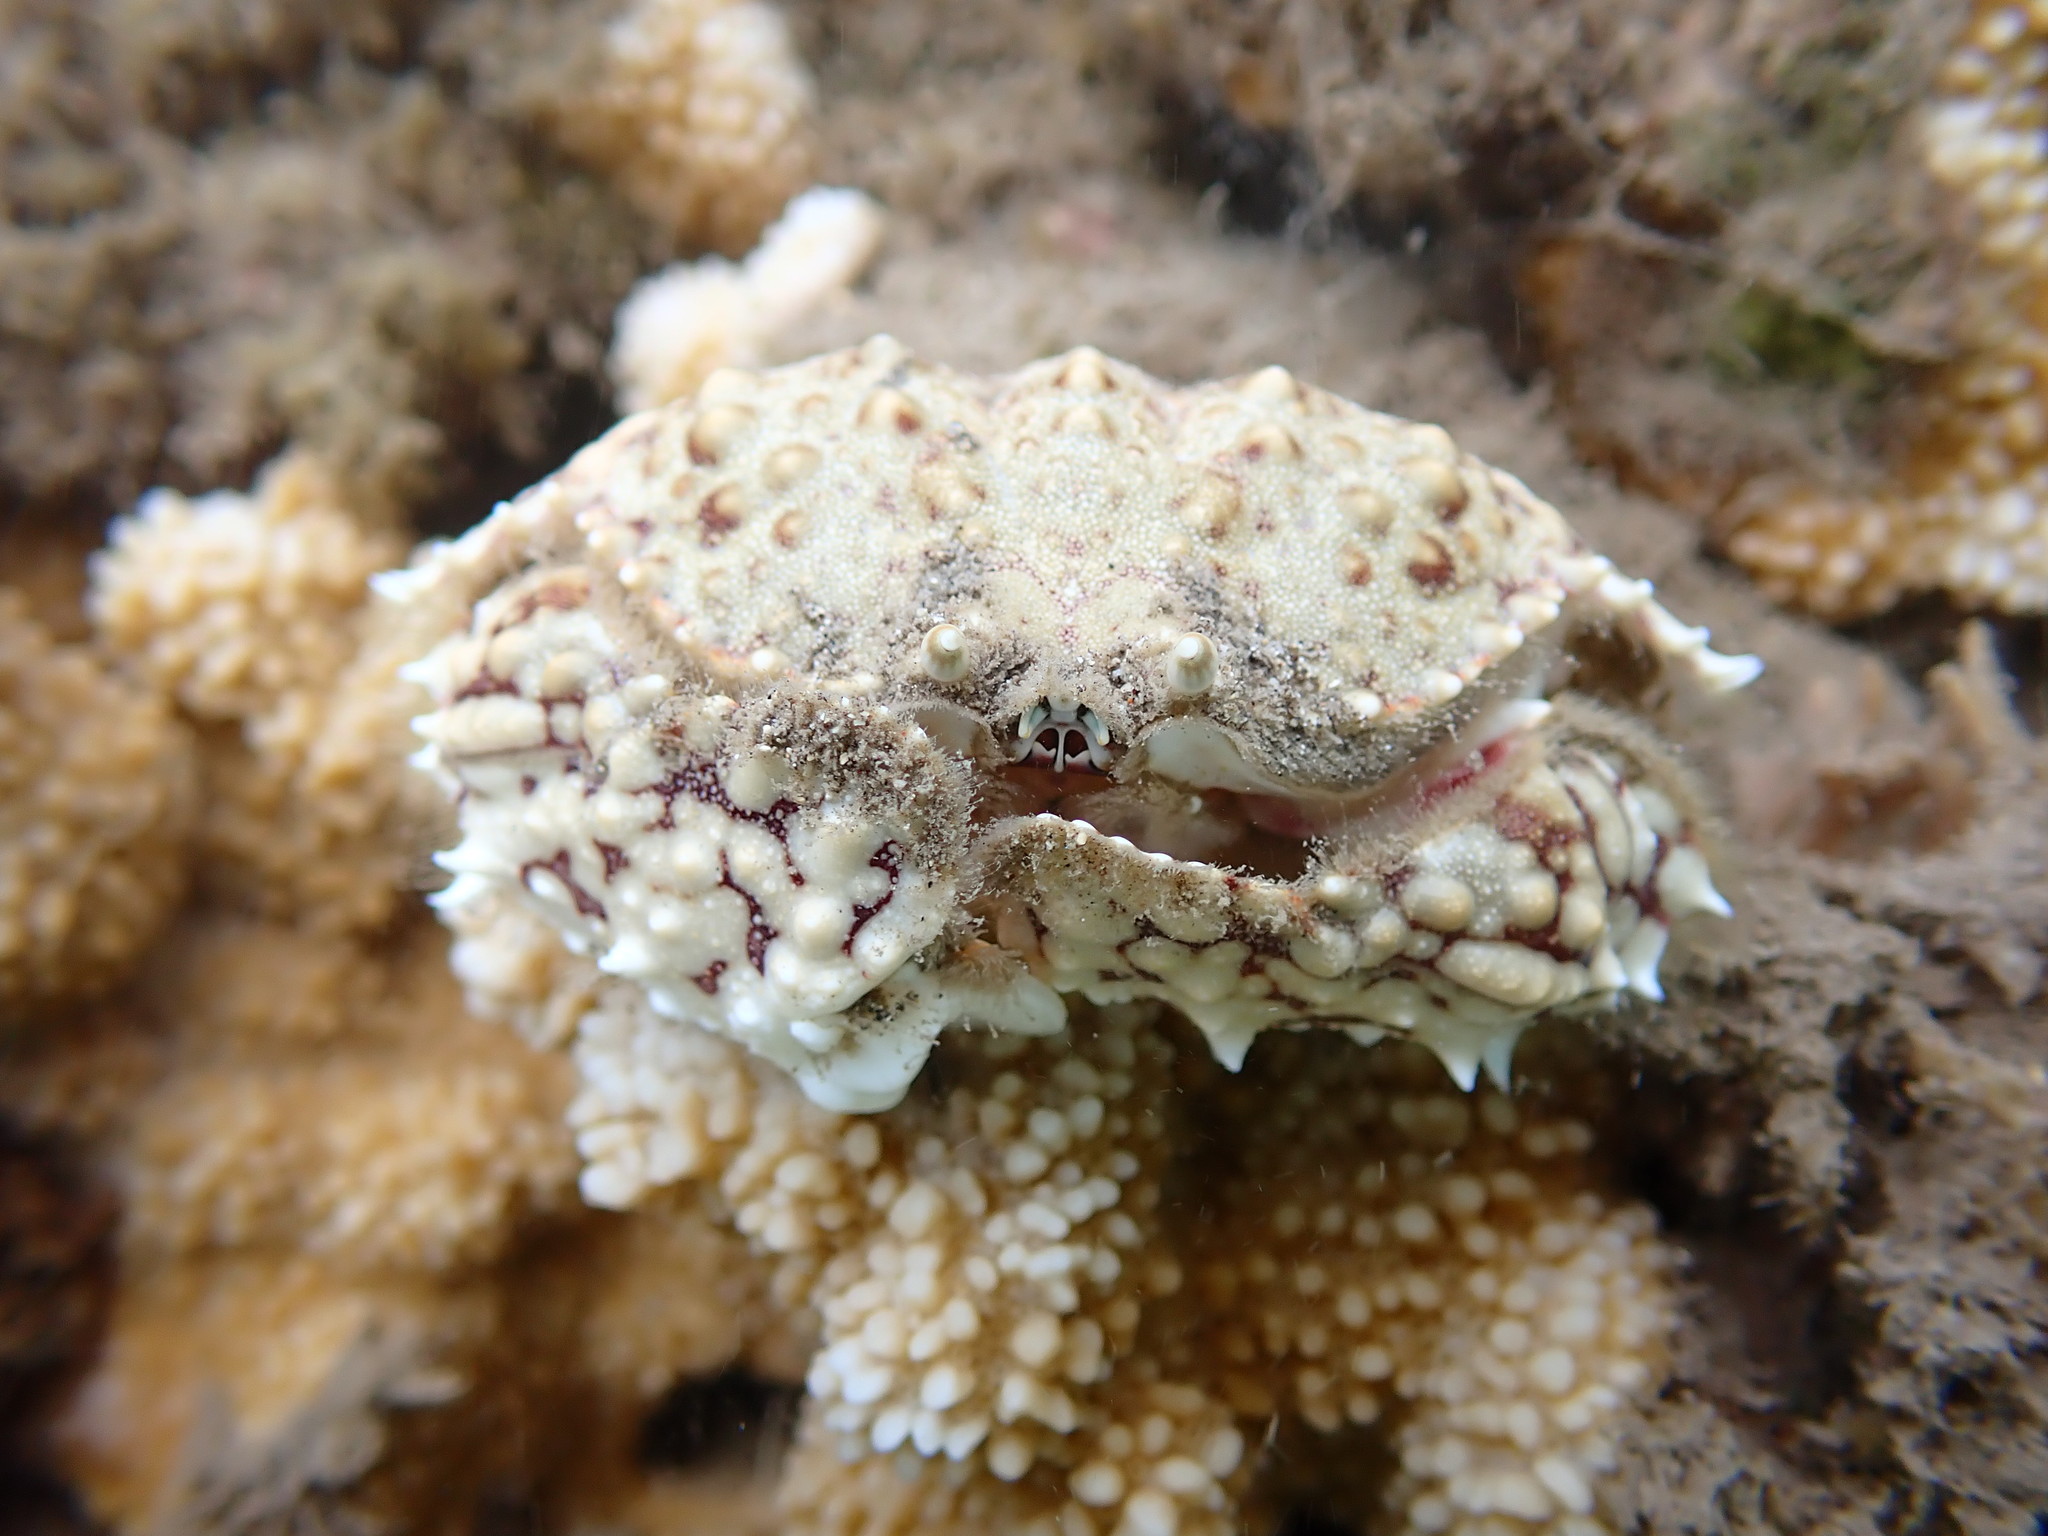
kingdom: Animalia
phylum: Arthropoda
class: Malacostraca
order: Decapoda
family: Calappidae
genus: Calappa
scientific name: Calappa hepatica
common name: Smooth box crab
